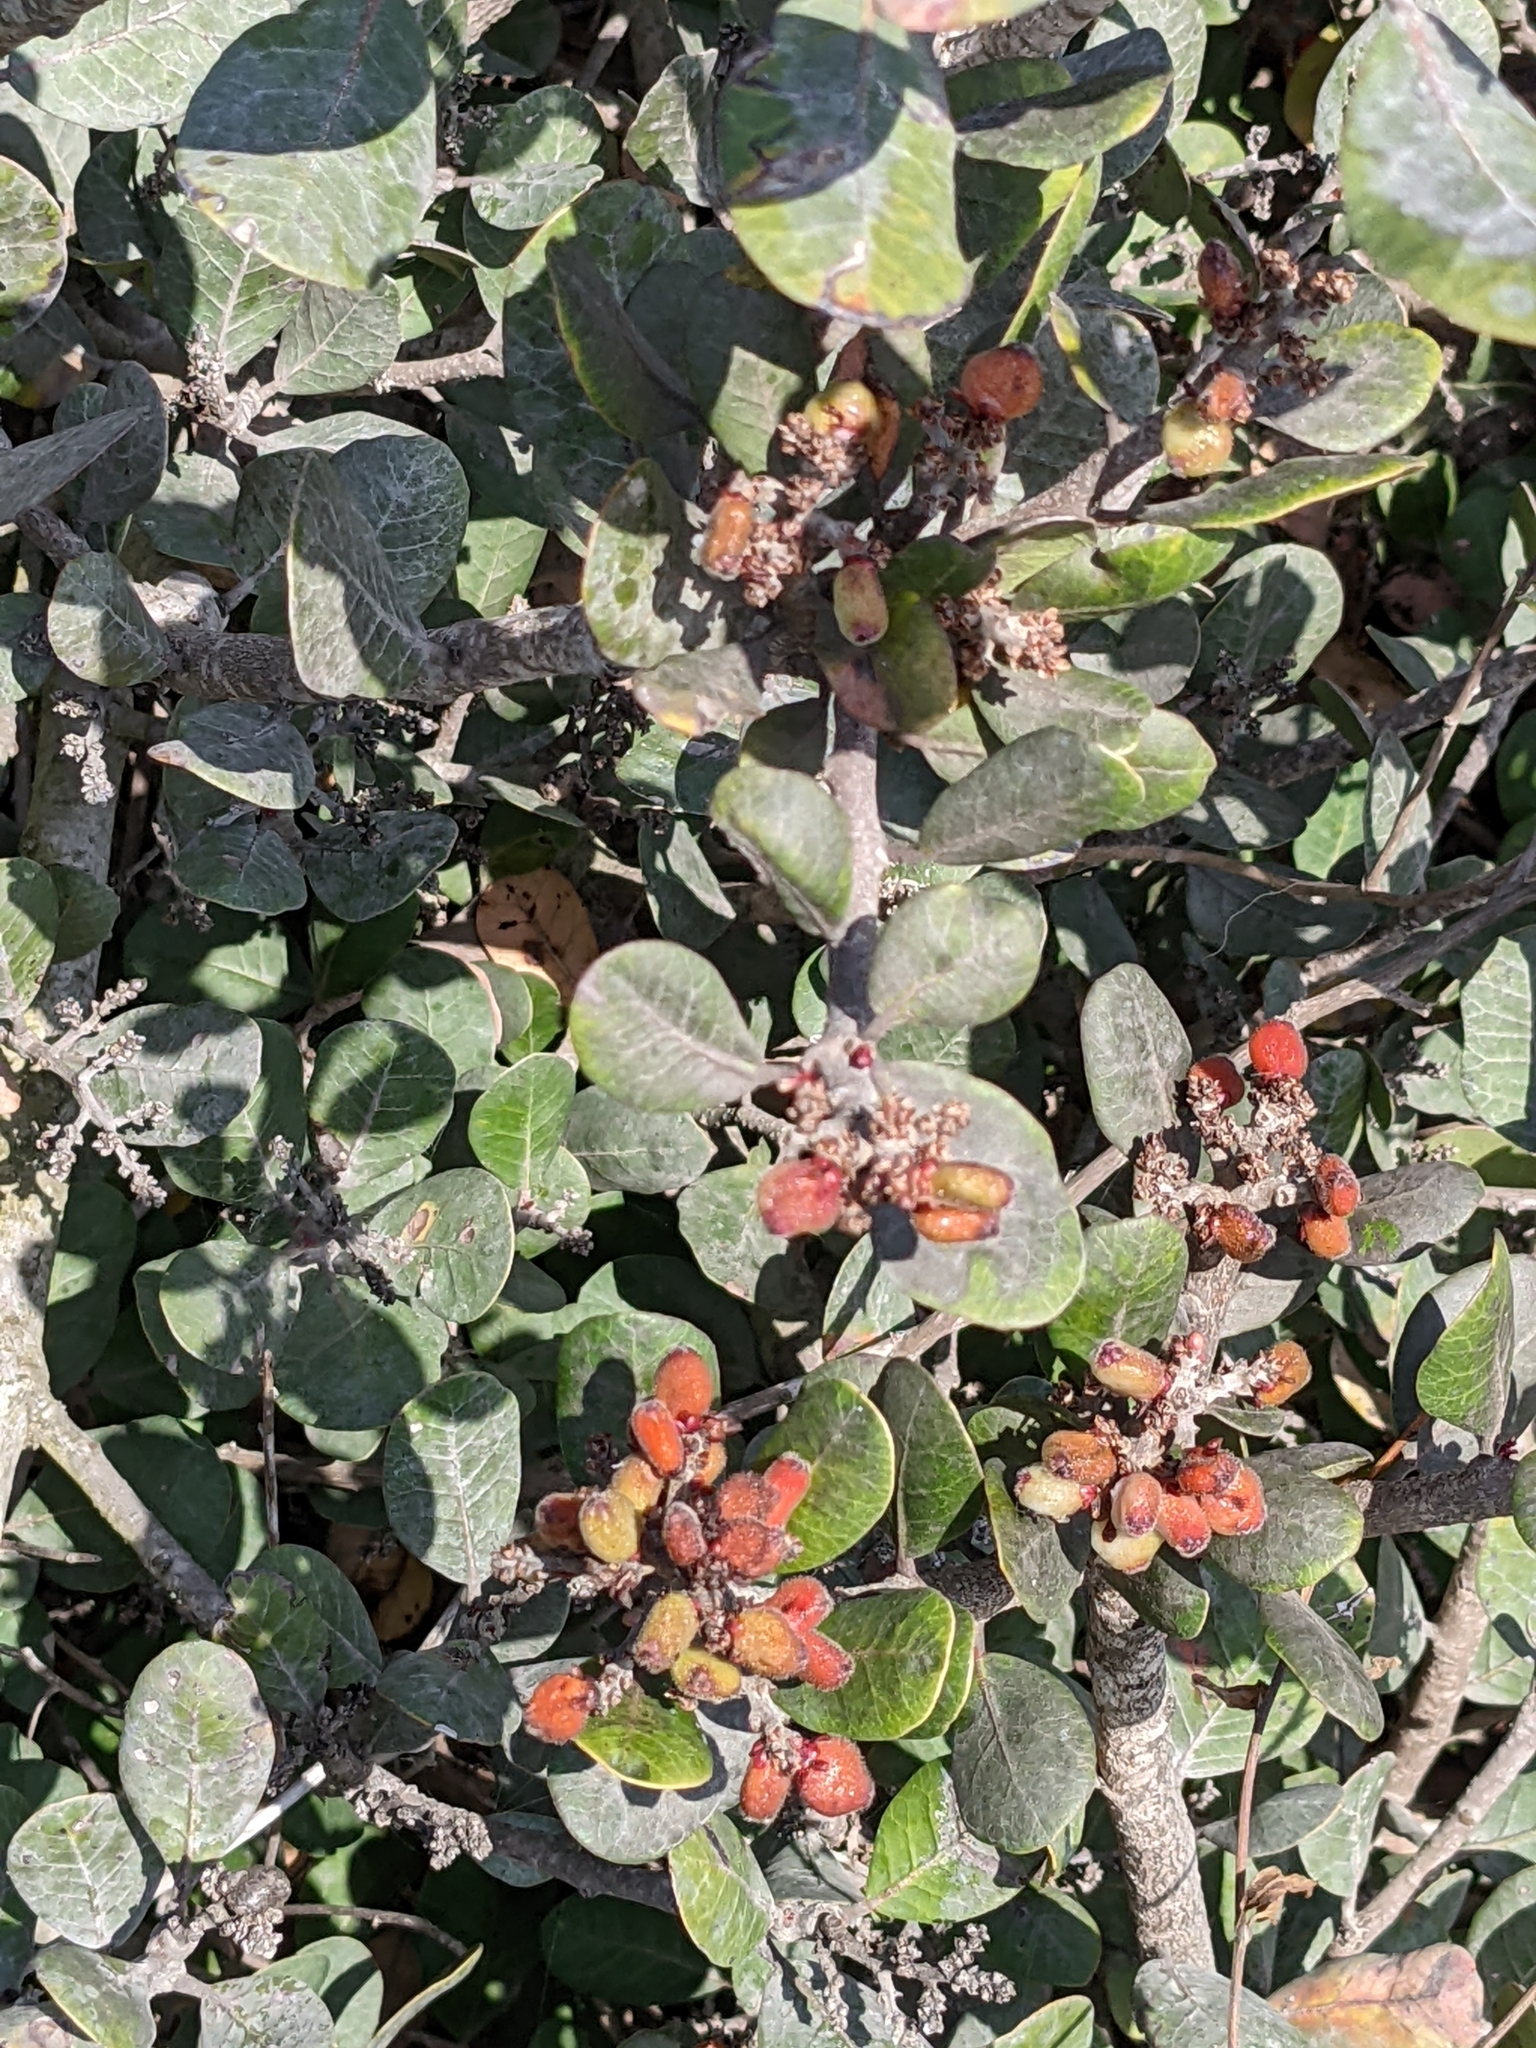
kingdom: Plantae
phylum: Tracheophyta
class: Magnoliopsida
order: Sapindales
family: Anacardiaceae
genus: Rhus
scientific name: Rhus integrifolia
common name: Lemonade sumac
